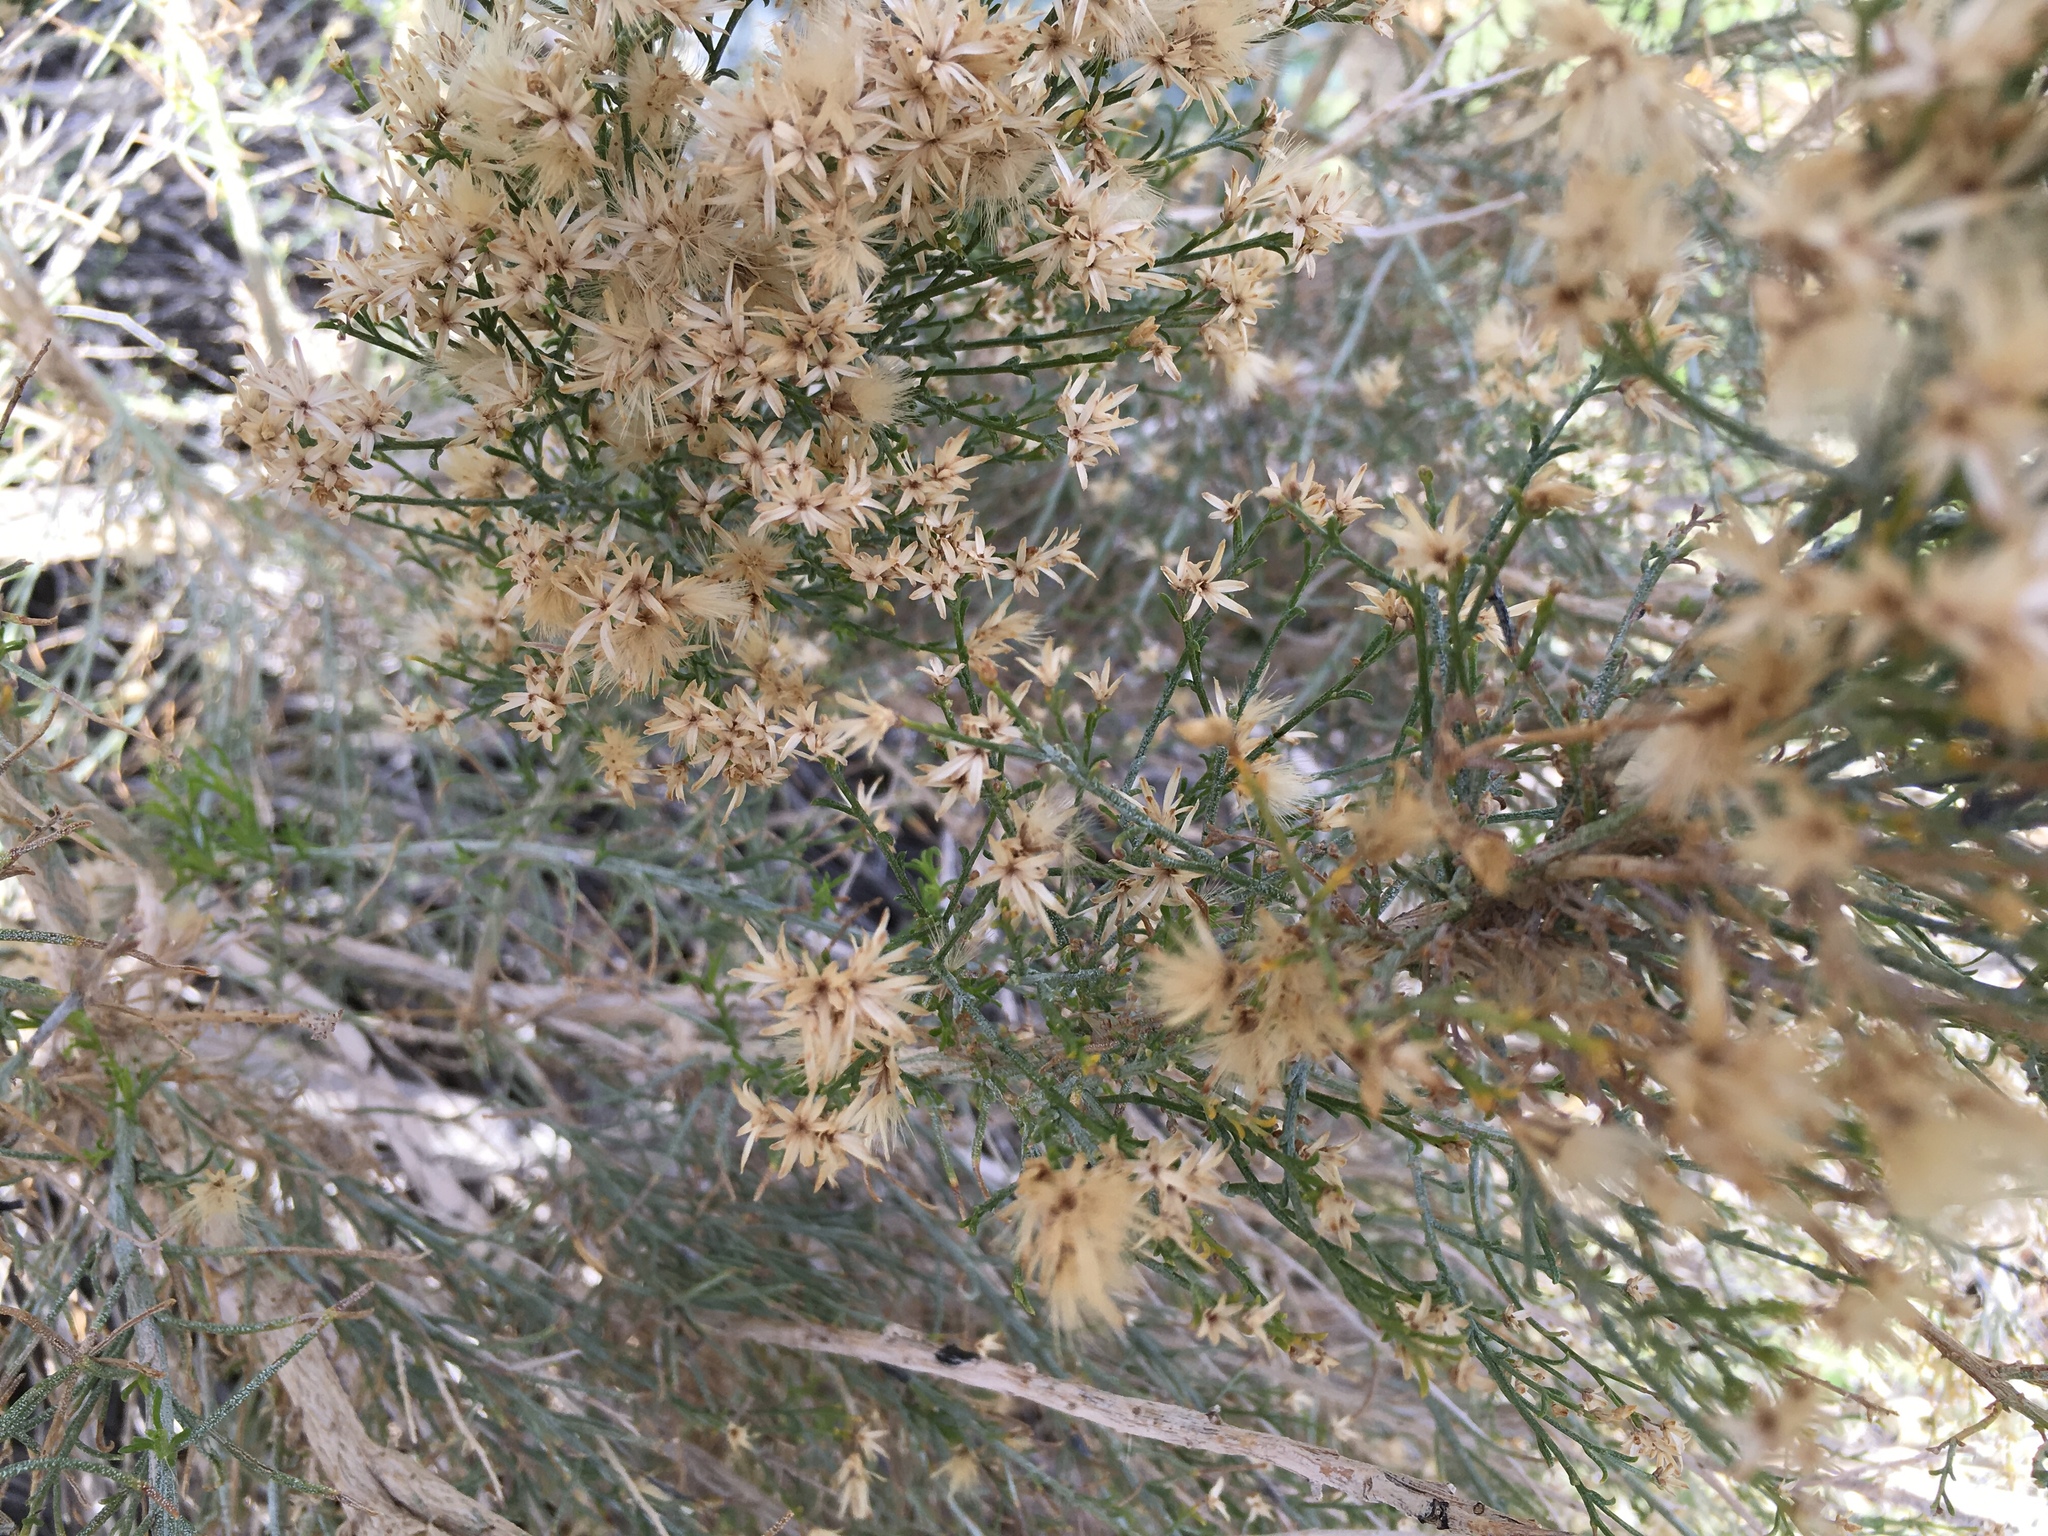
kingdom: Plantae
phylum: Tracheophyta
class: Magnoliopsida
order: Asterales
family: Asteraceae
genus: Ericameria
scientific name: Ericameria paniculata
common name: Punctate rabbitbrush
